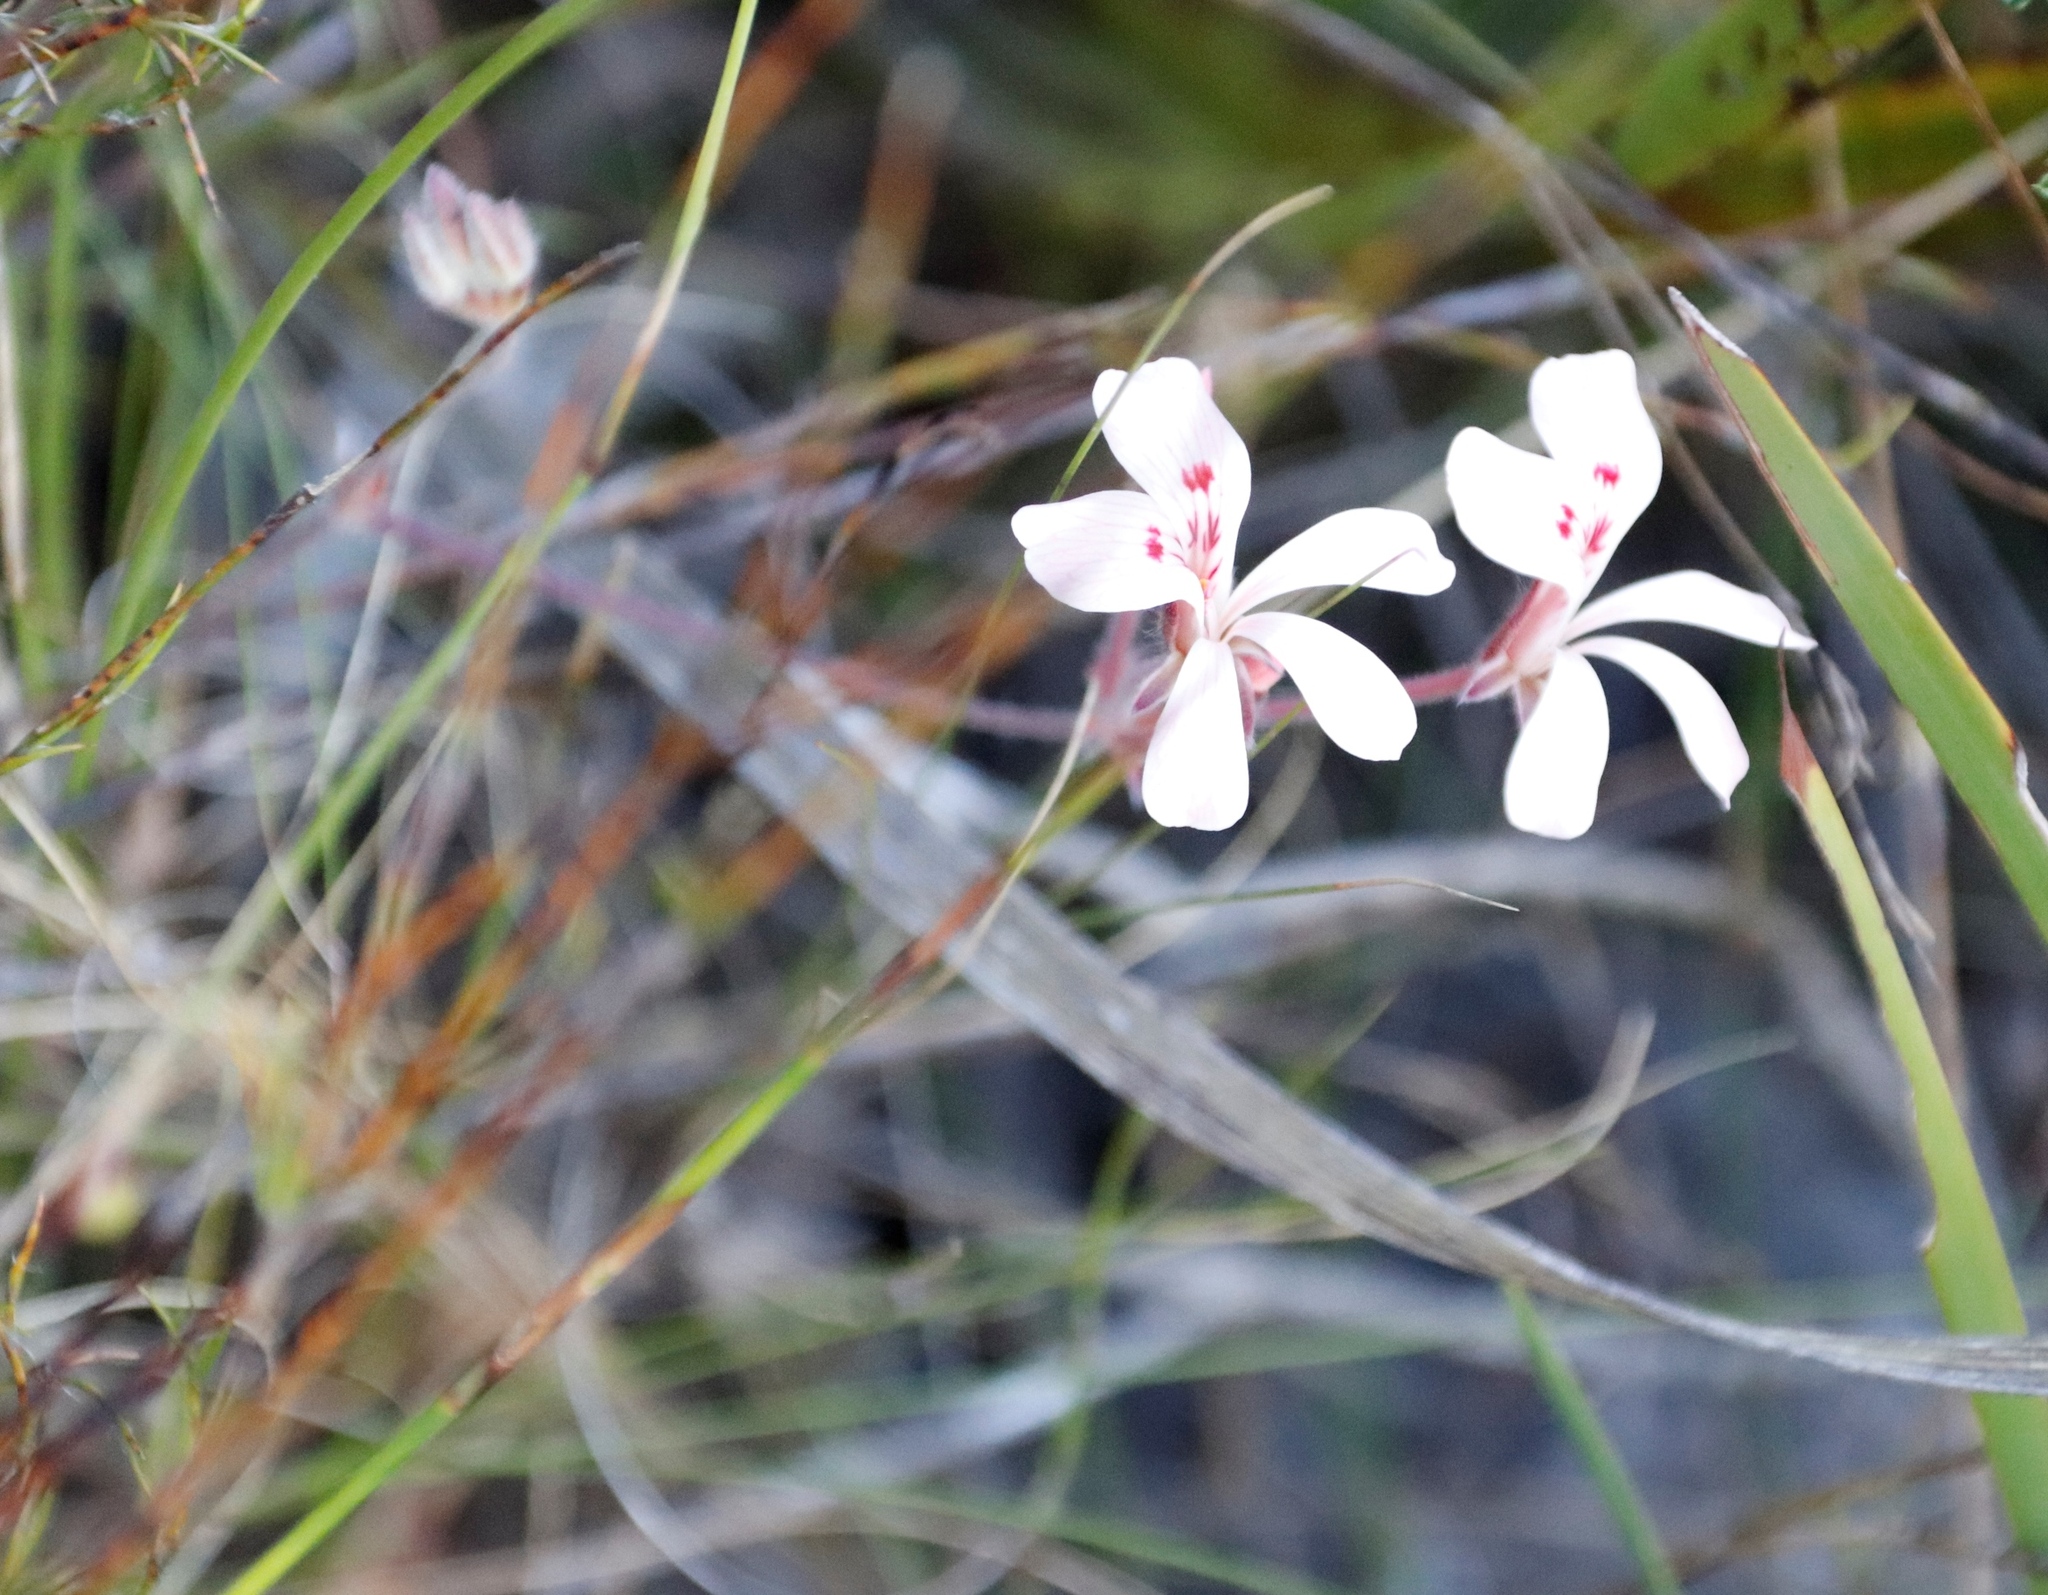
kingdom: Plantae
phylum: Tracheophyta
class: Magnoliopsida
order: Geraniales
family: Geraniaceae
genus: Pelargonium
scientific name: Pelargonium pinnatum
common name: Pinnated pelargonium
